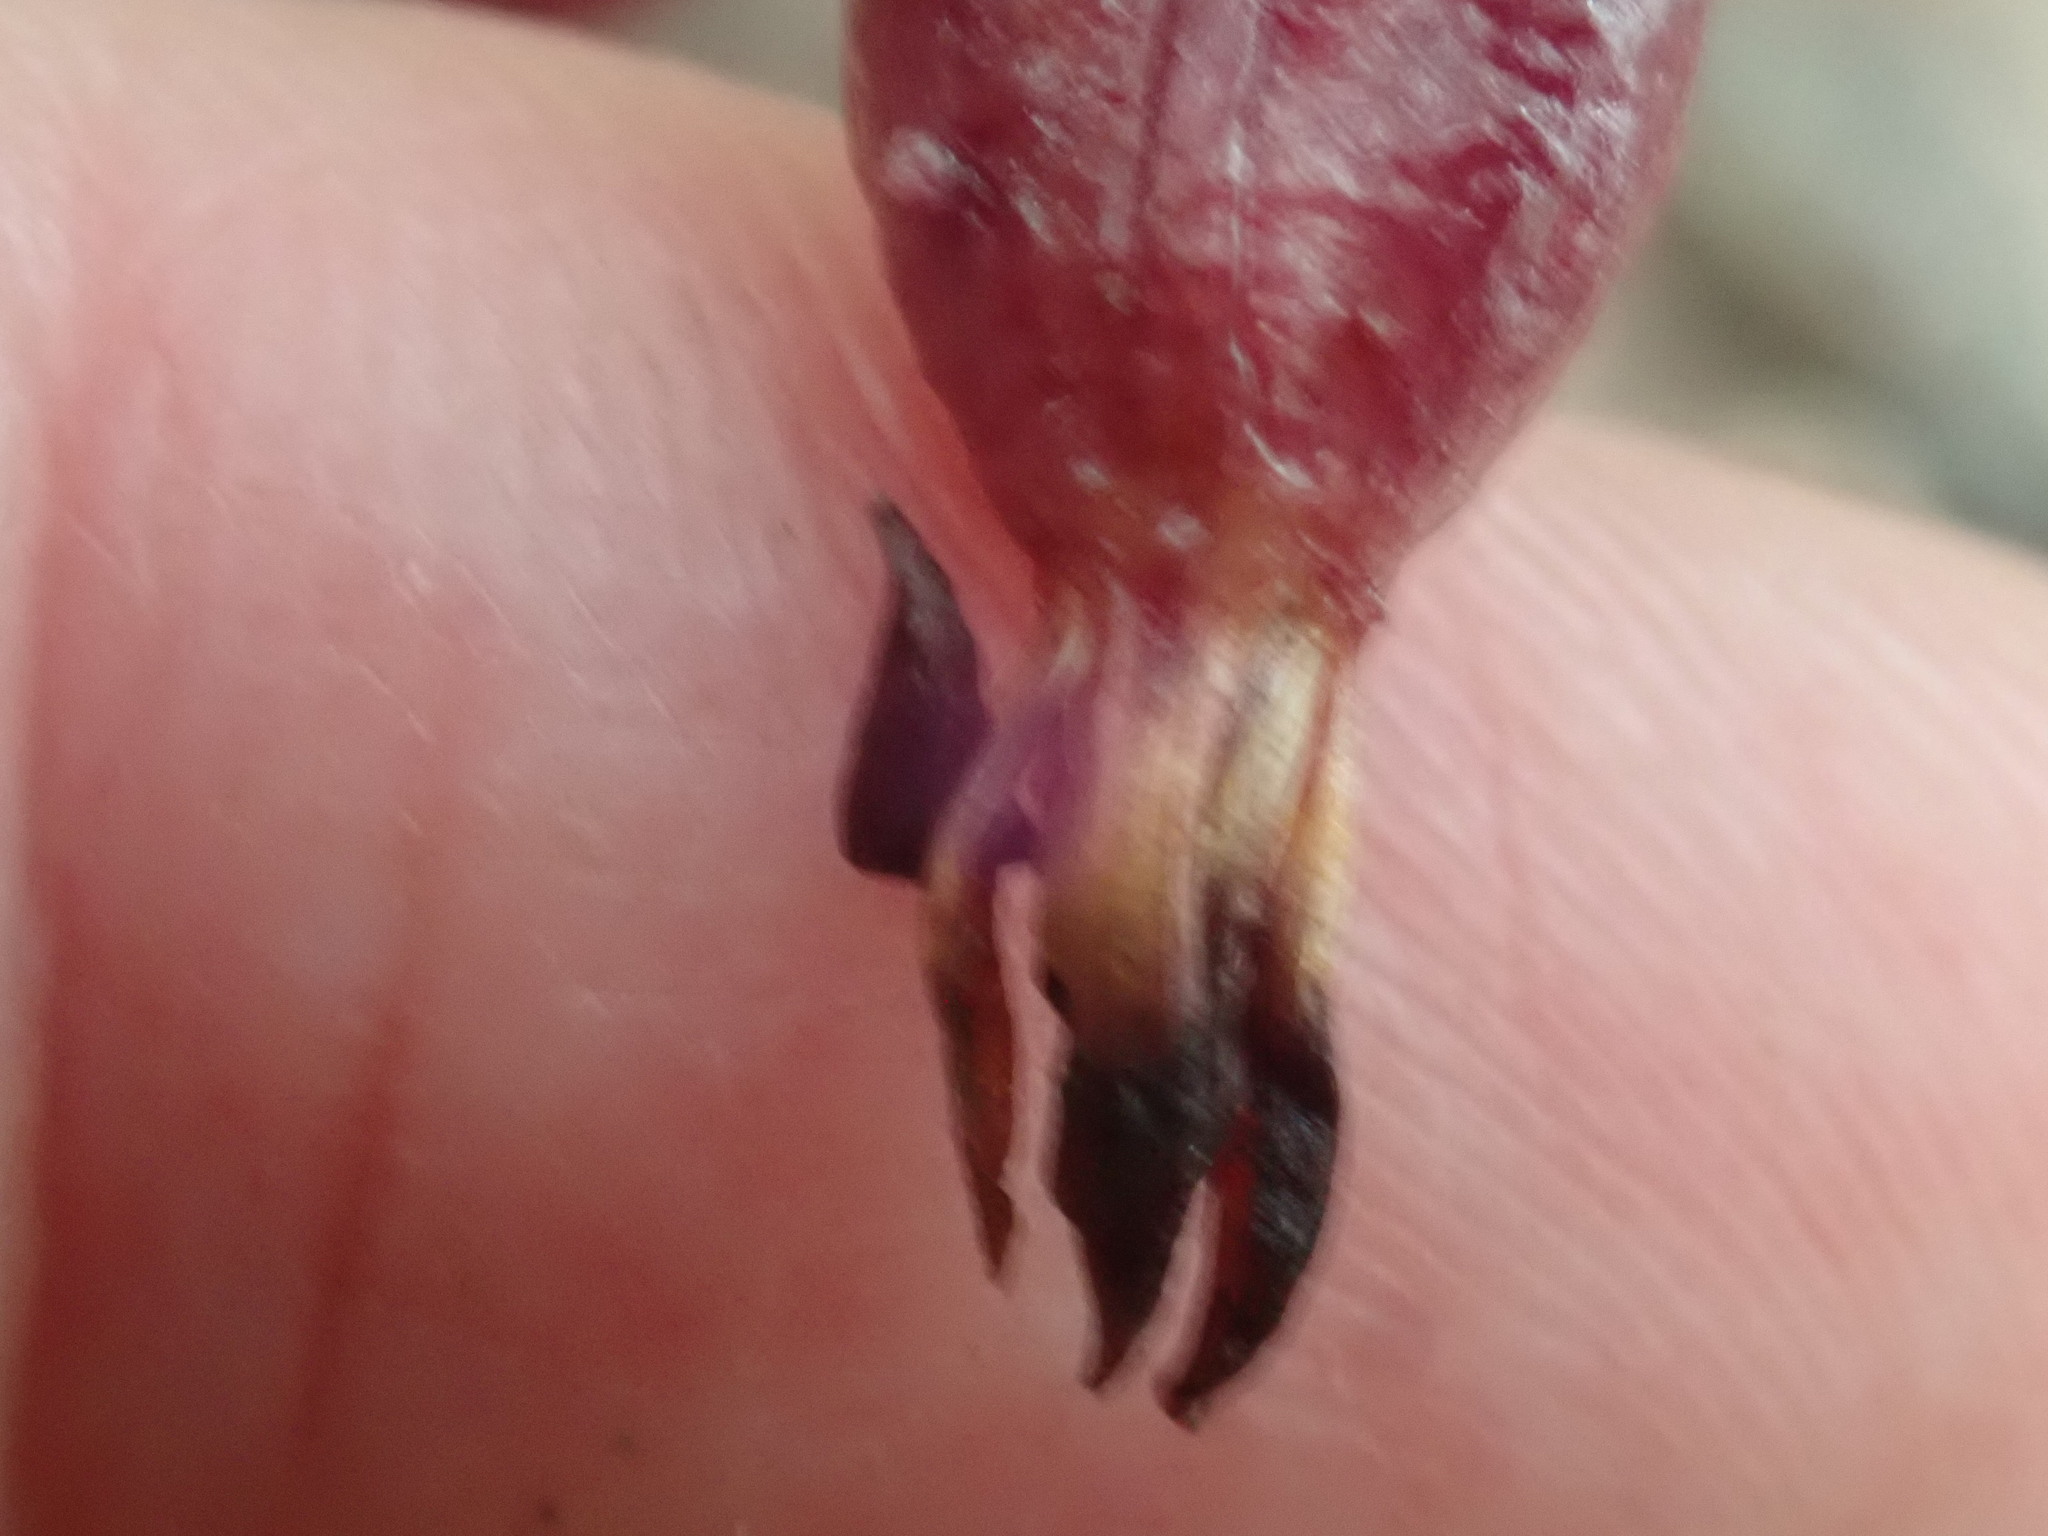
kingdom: Plantae
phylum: Tracheophyta
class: Liliopsida
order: Asparagales
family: Orchidaceae
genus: Corallorhiza
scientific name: Corallorhiza maculata
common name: Spotted coralroot
